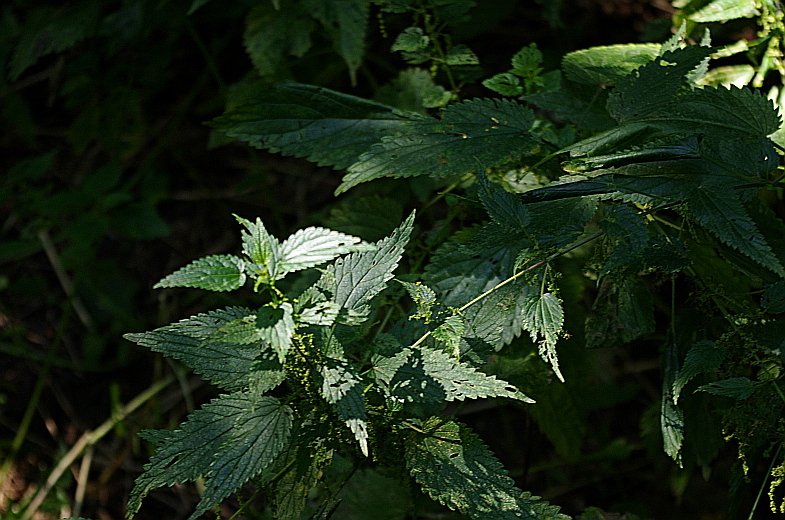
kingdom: Plantae
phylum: Tracheophyta
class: Magnoliopsida
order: Rosales
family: Urticaceae
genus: Urtica
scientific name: Urtica dioica
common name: Common nettle
